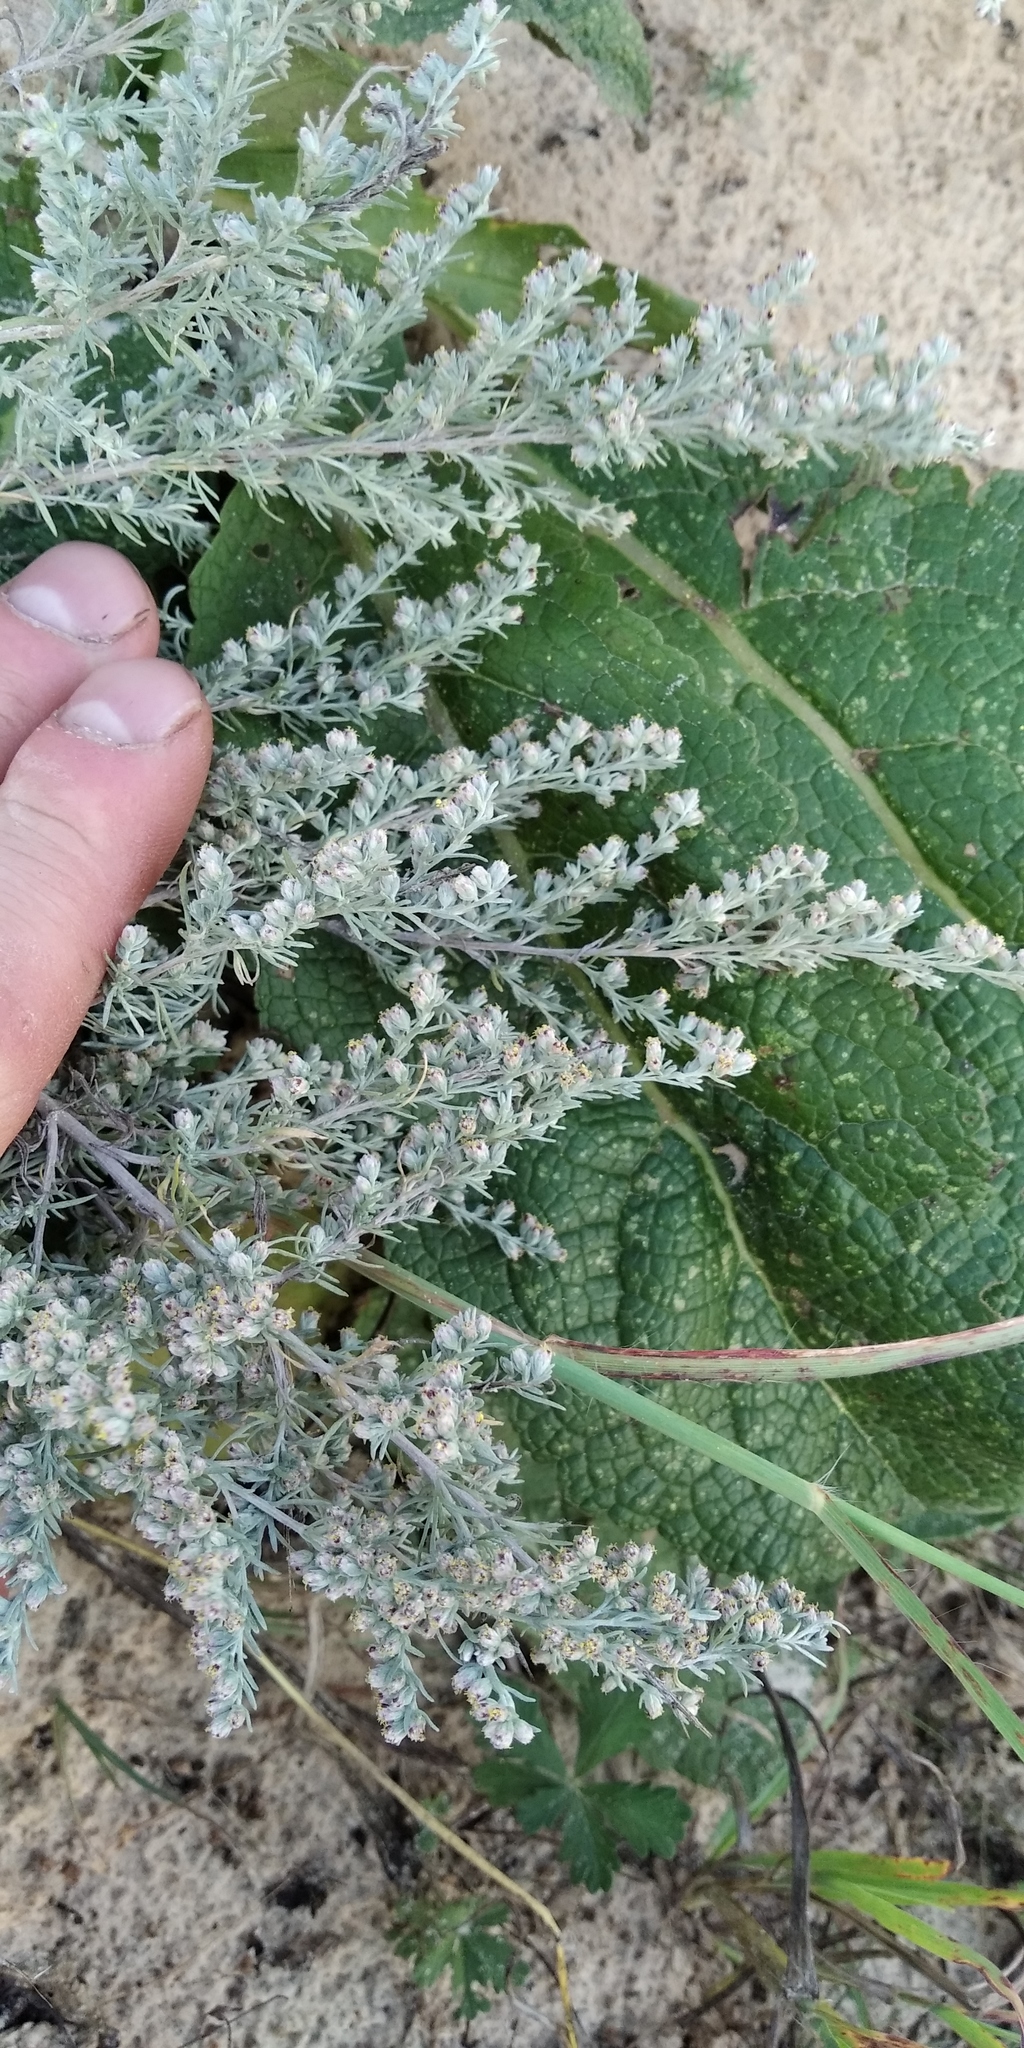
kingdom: Plantae
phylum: Tracheophyta
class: Magnoliopsida
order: Asterales
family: Asteraceae
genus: Artemisia
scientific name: Artemisia austriaca
